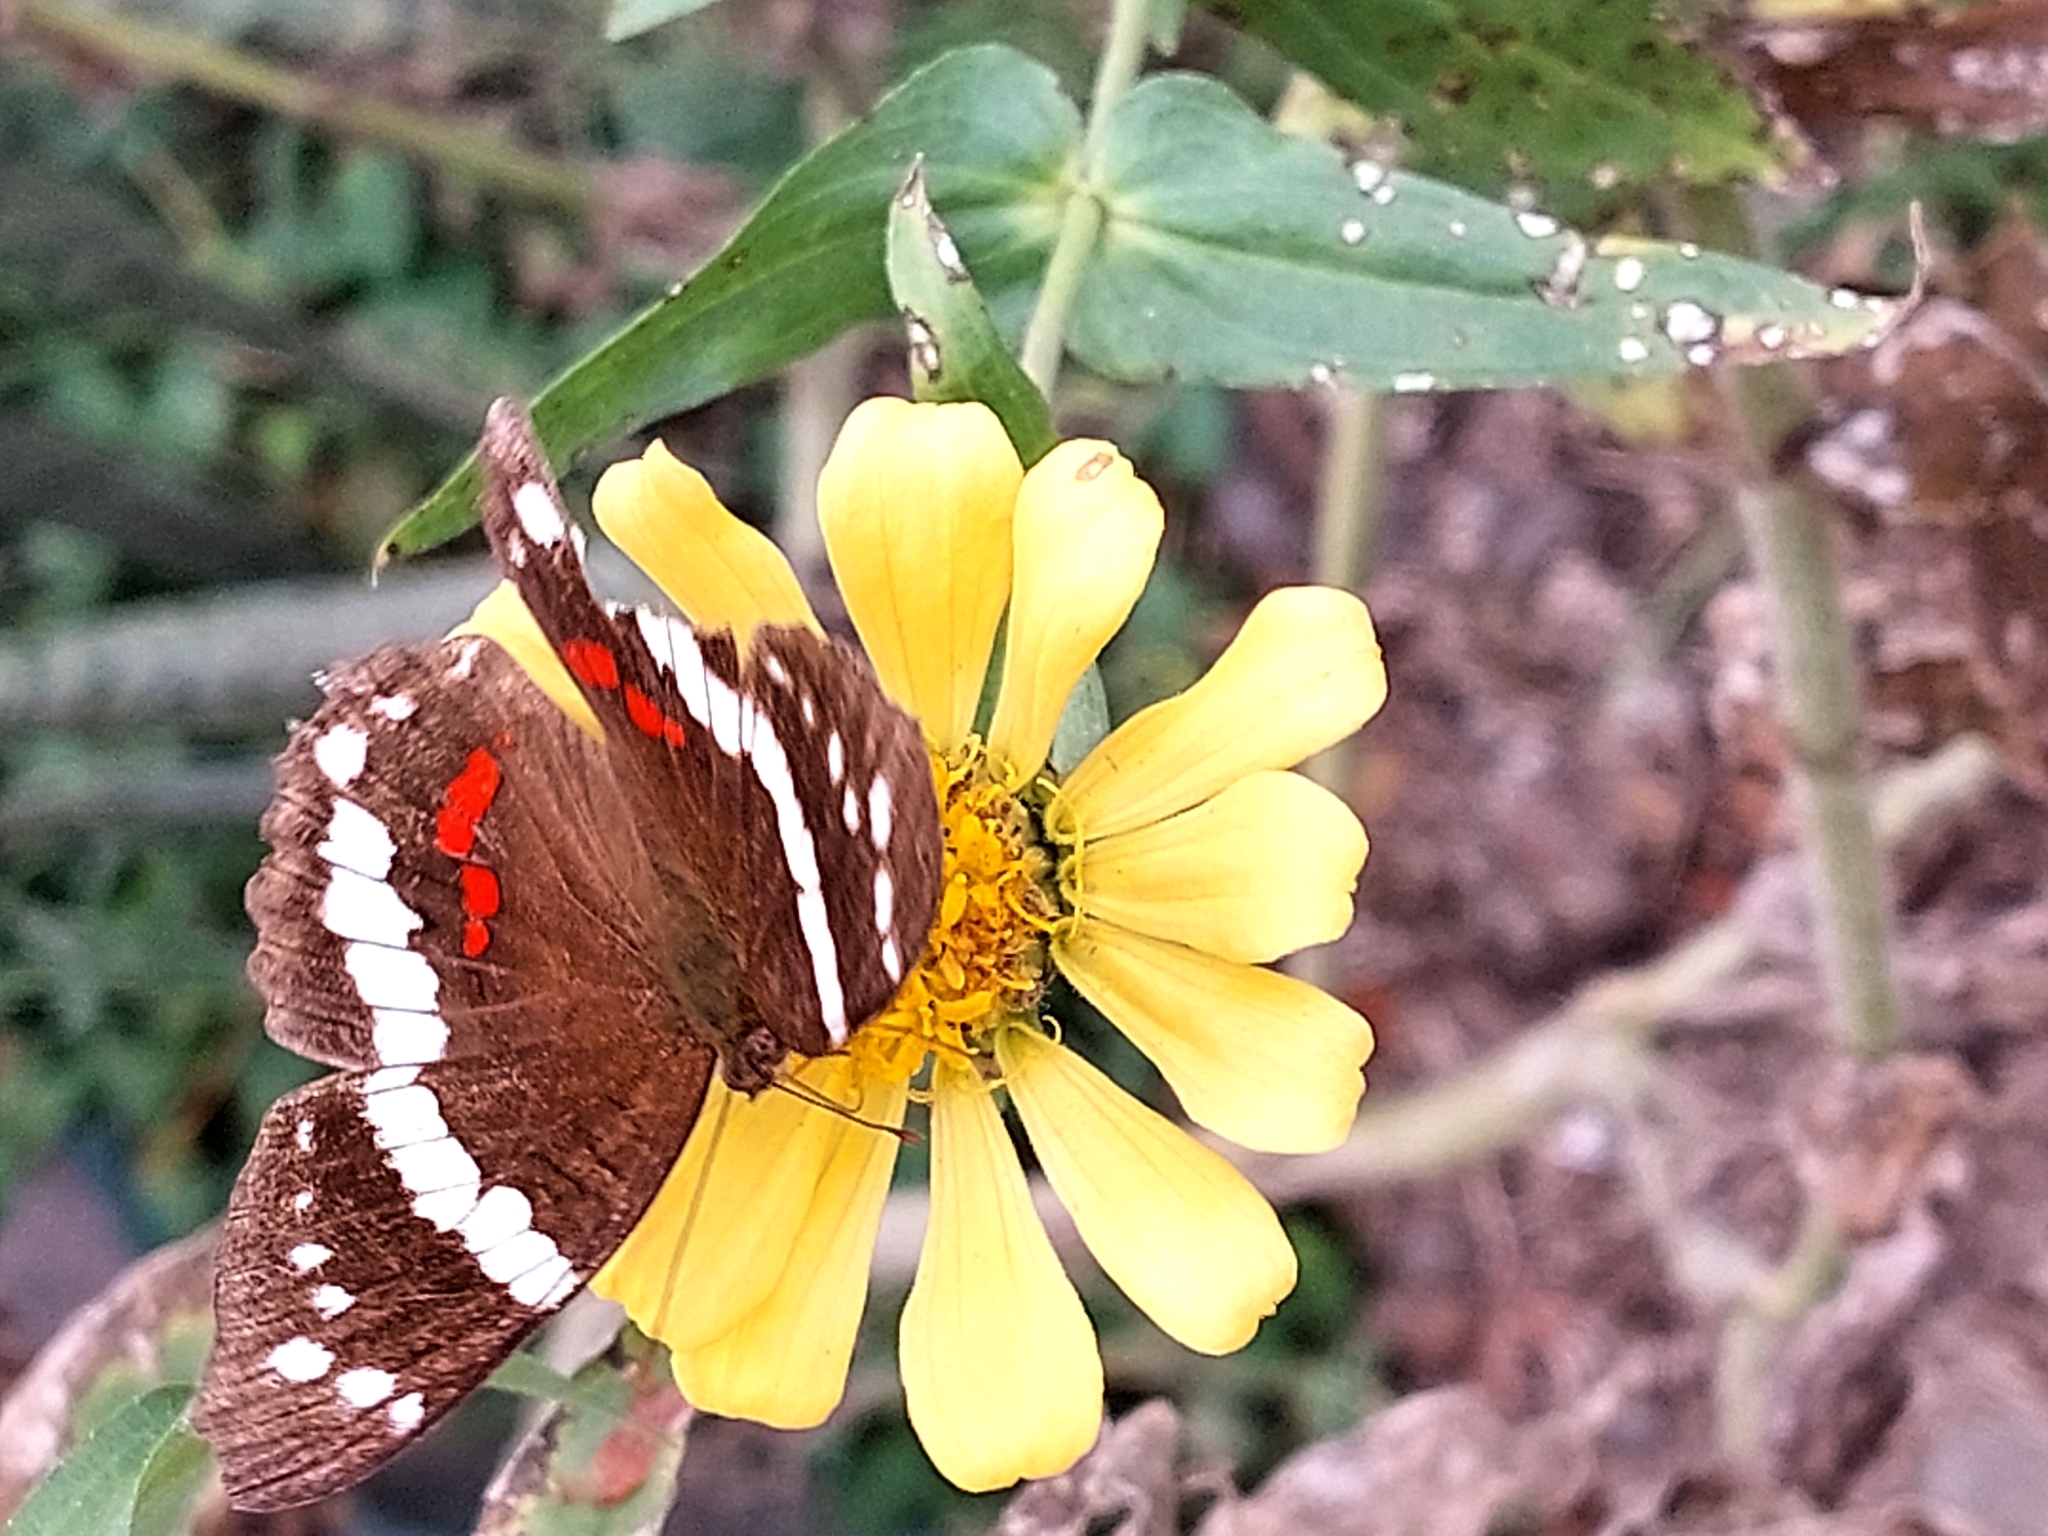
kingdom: Animalia
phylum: Arthropoda
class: Insecta
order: Lepidoptera
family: Nymphalidae
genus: Anartia
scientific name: Anartia fatima
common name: Banded peacock
